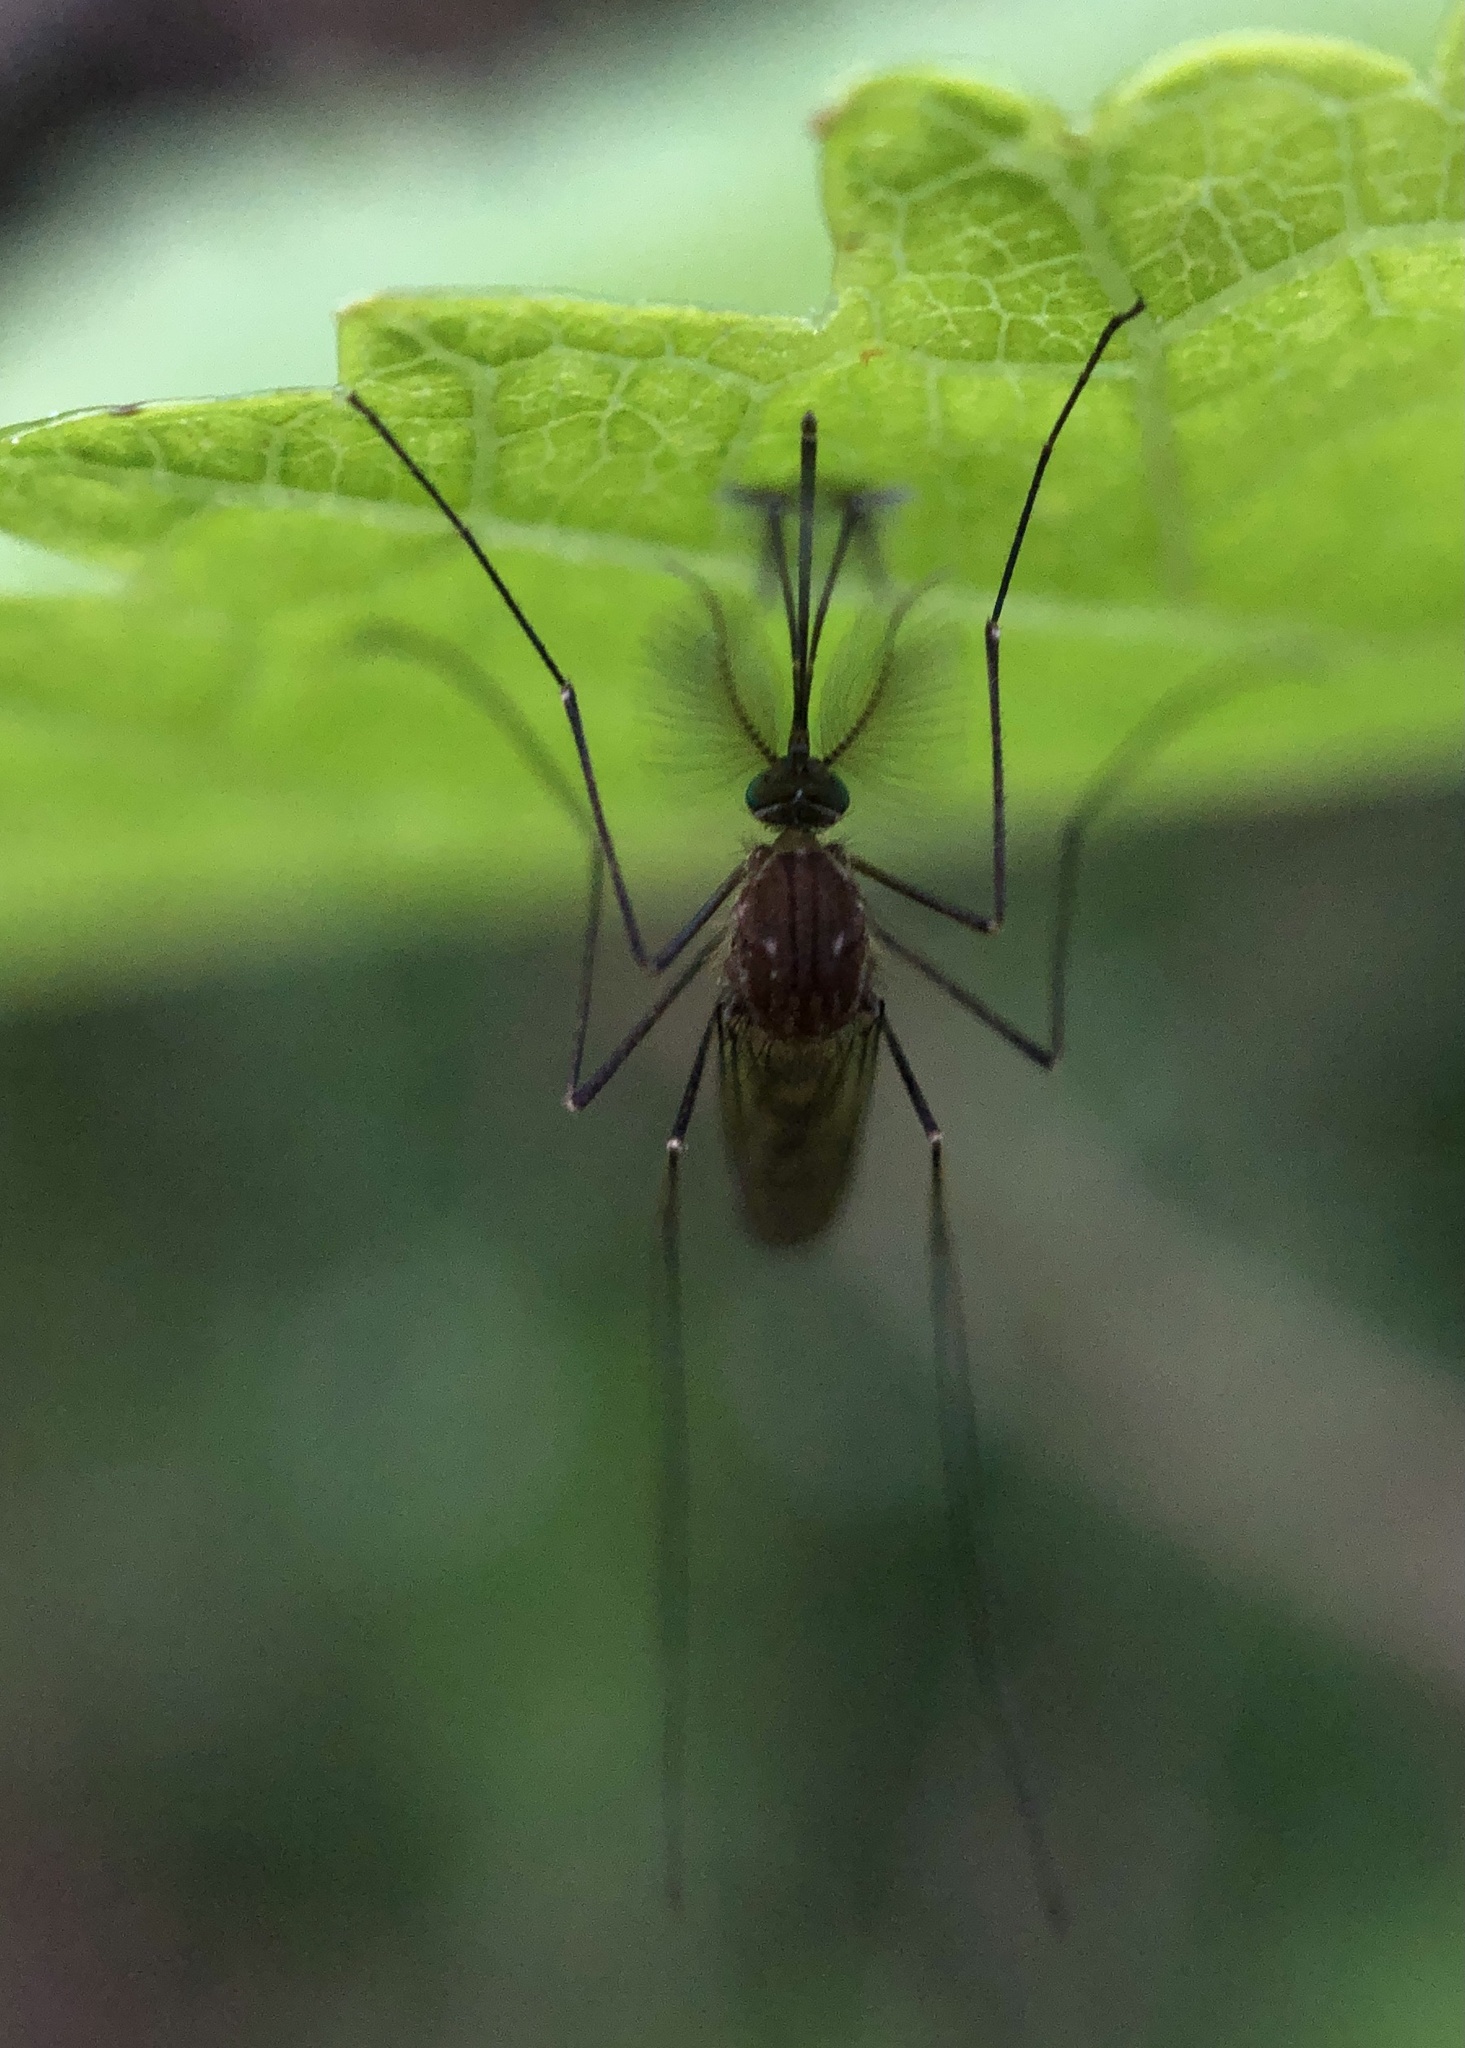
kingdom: Animalia
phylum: Arthropoda
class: Insecta
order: Diptera
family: Culicidae
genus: Culex
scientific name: Culex restuans
